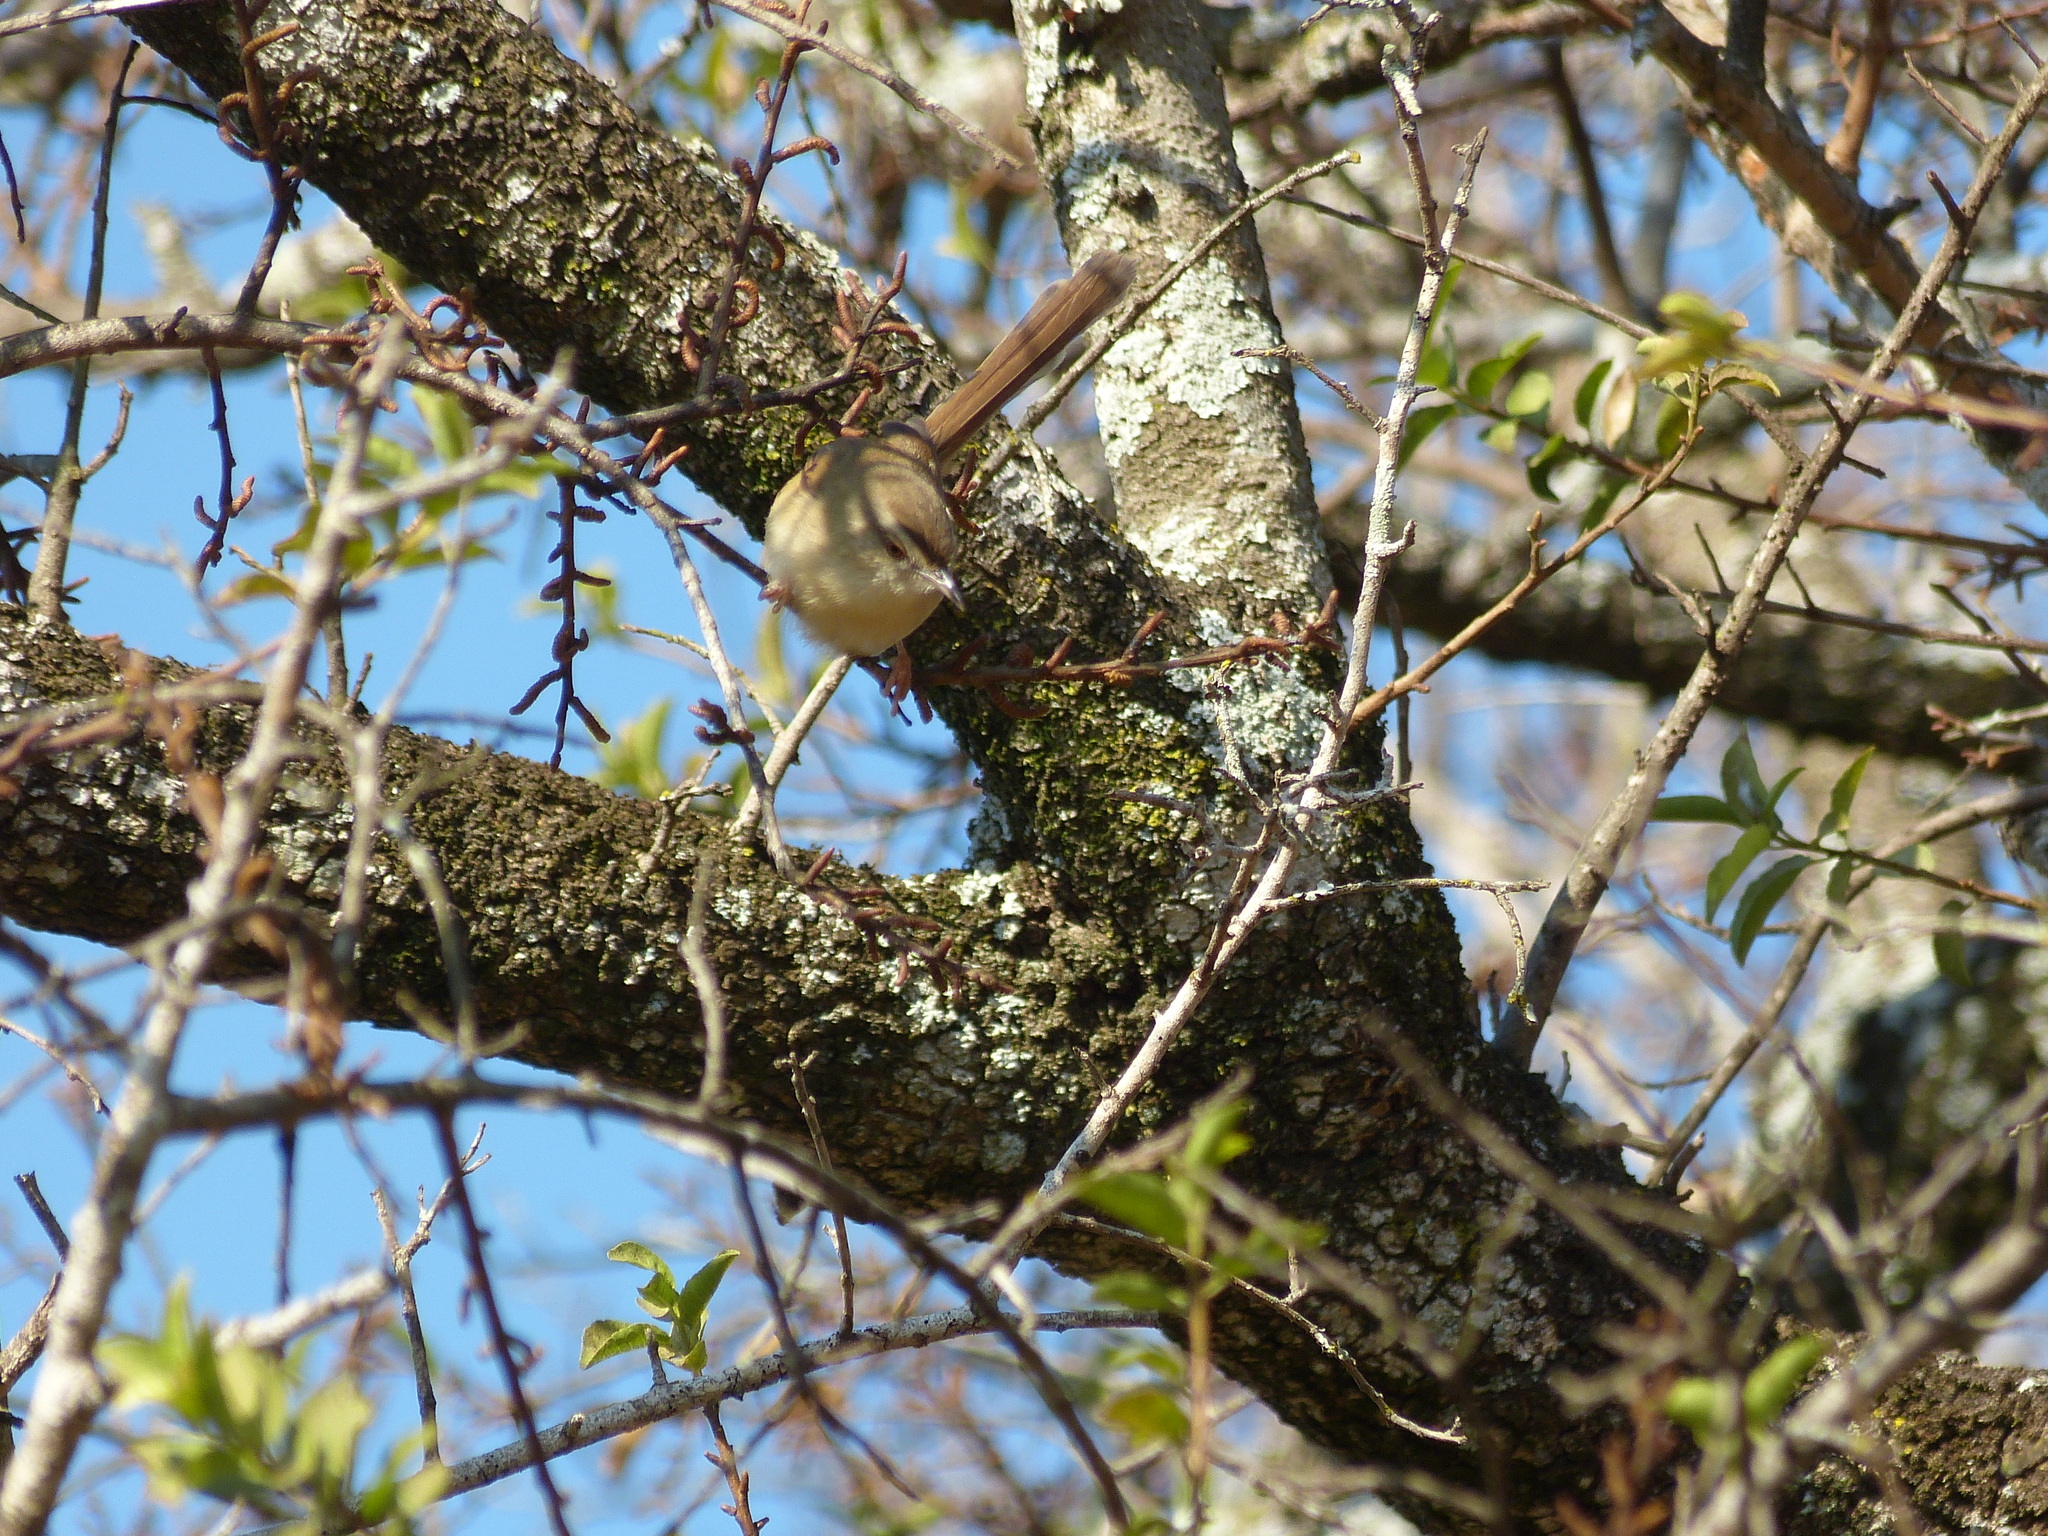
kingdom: Animalia
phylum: Chordata
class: Aves
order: Passeriformes
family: Cisticolidae
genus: Prinia
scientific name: Prinia subflava
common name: Tawny-flanked prinia
